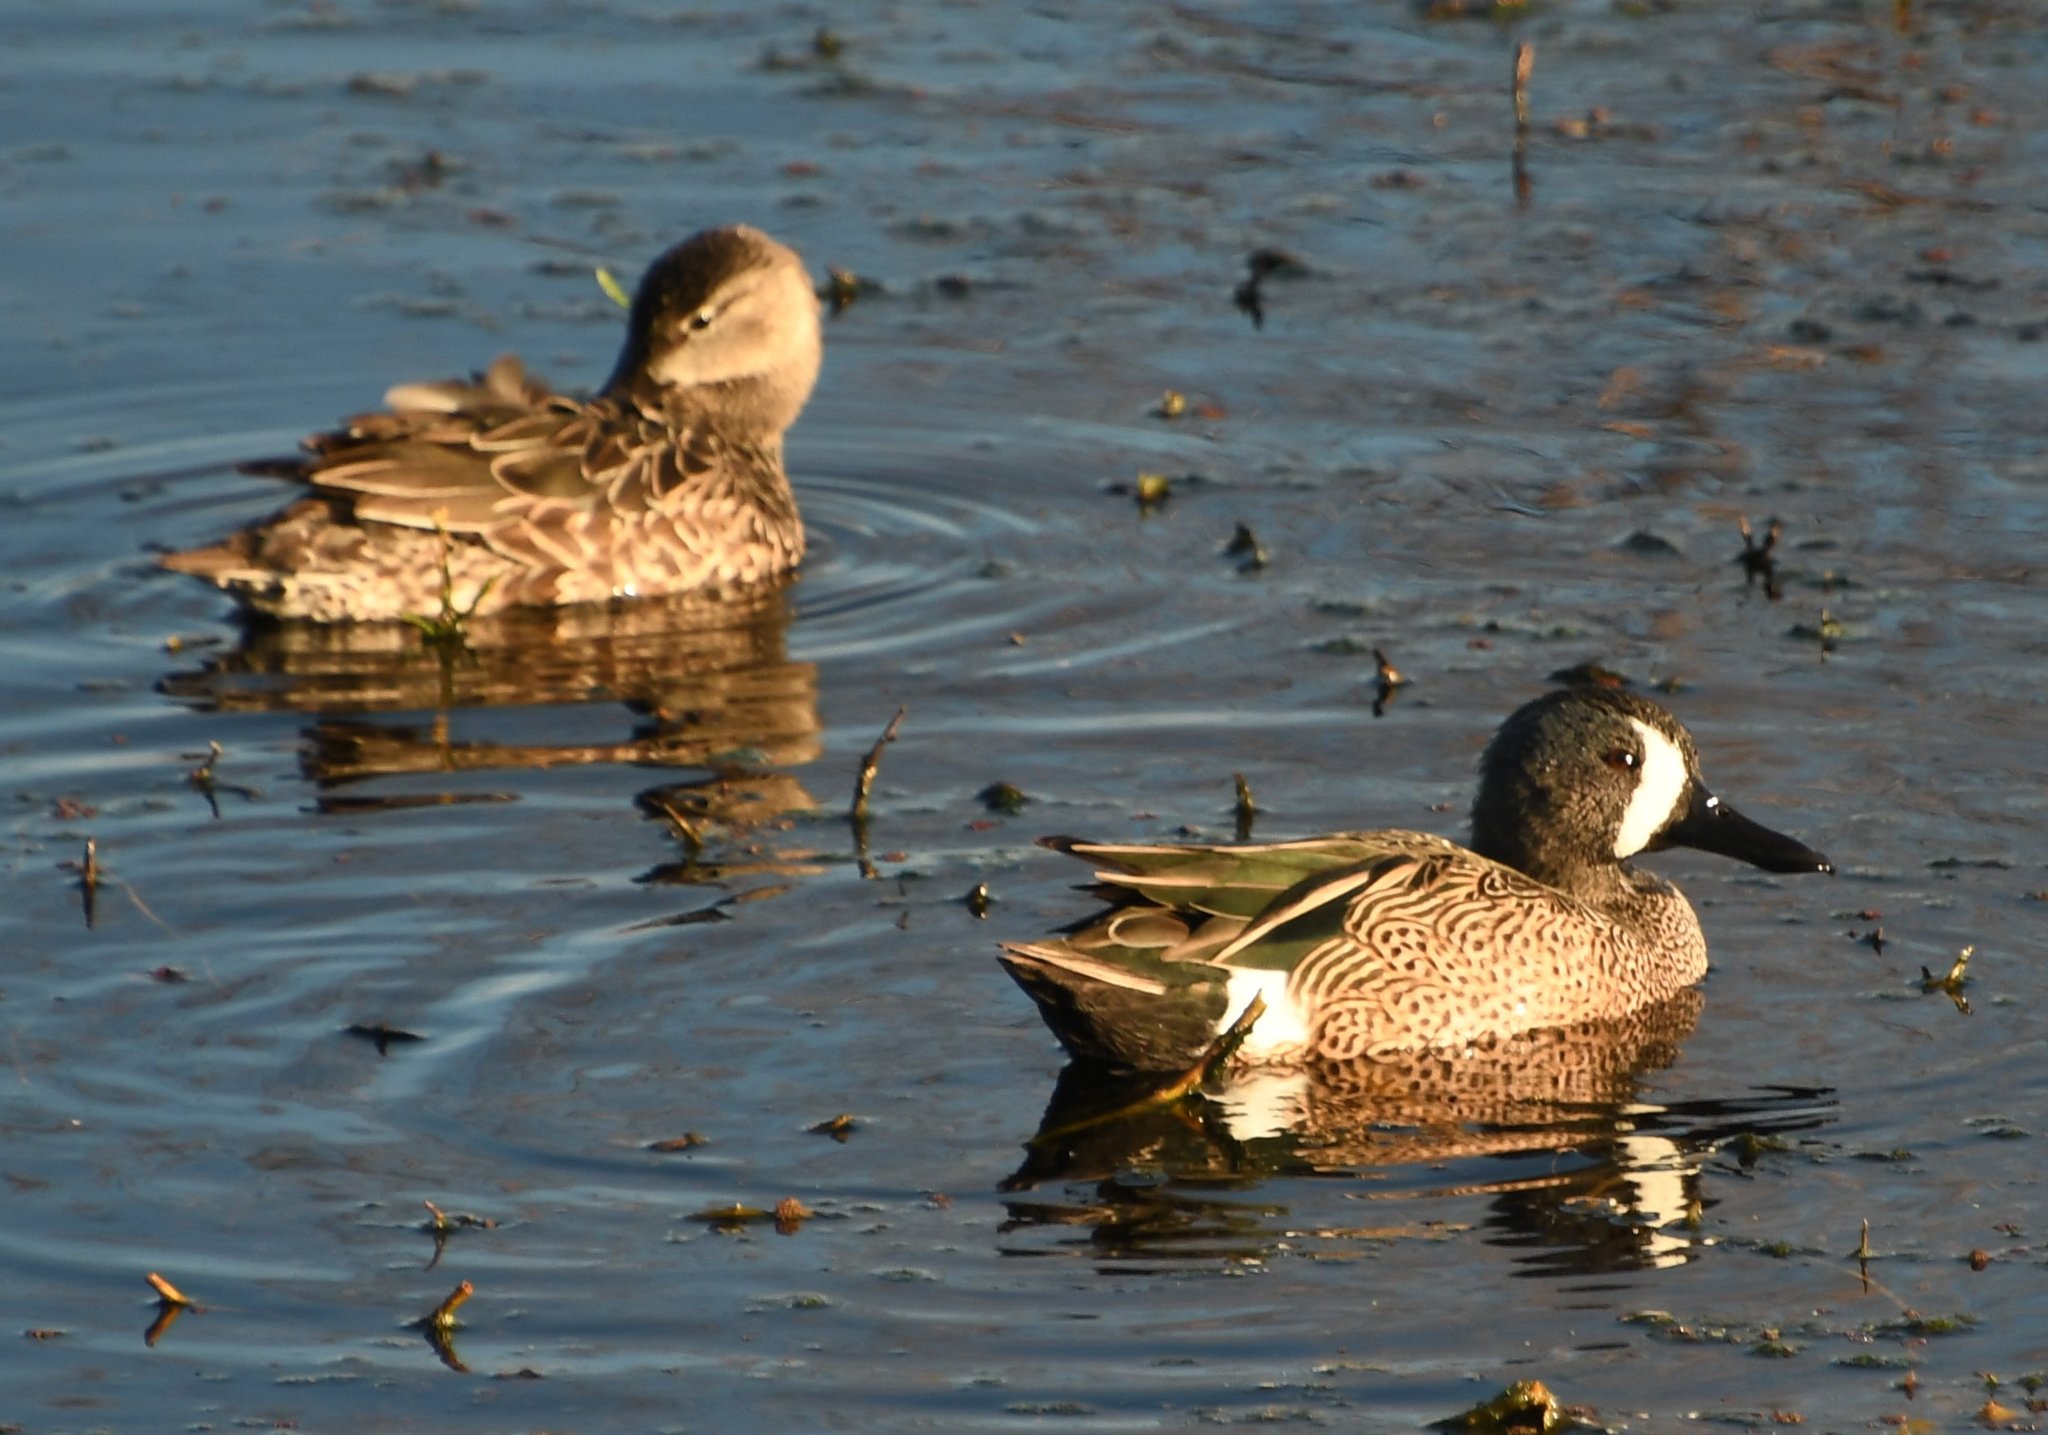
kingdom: Animalia
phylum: Chordata
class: Aves
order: Anseriformes
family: Anatidae
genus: Spatula
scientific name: Spatula discors
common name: Blue-winged teal
